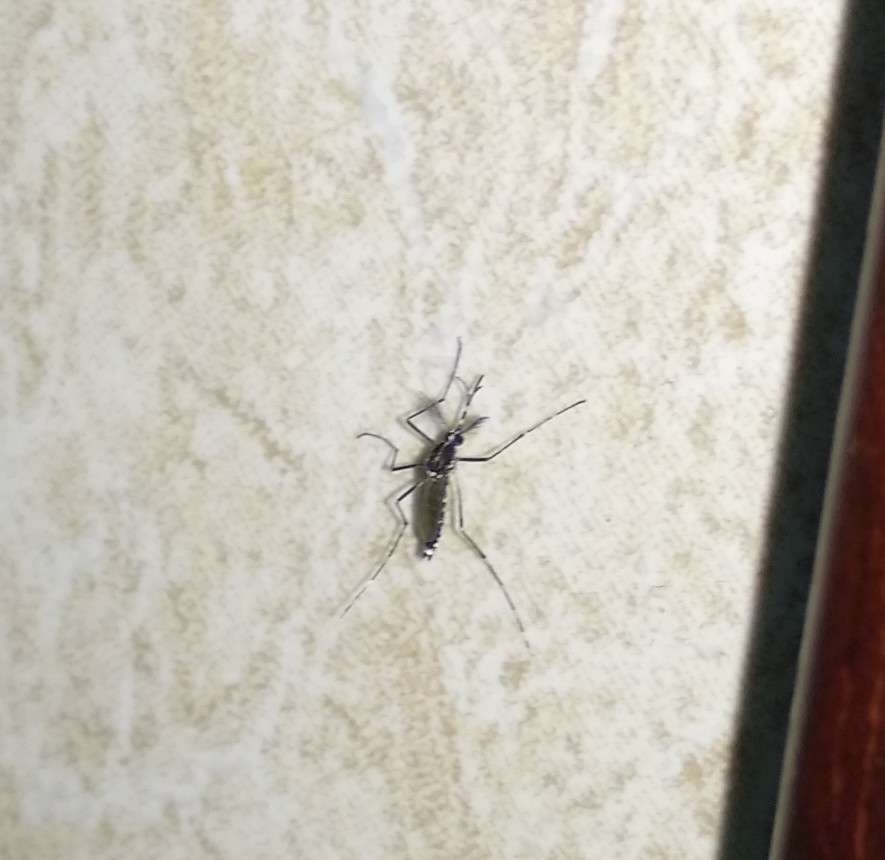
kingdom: Animalia
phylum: Arthropoda
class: Insecta
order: Diptera
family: Culicidae
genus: Aedes
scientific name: Aedes albopictus
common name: Tiger mosquito
